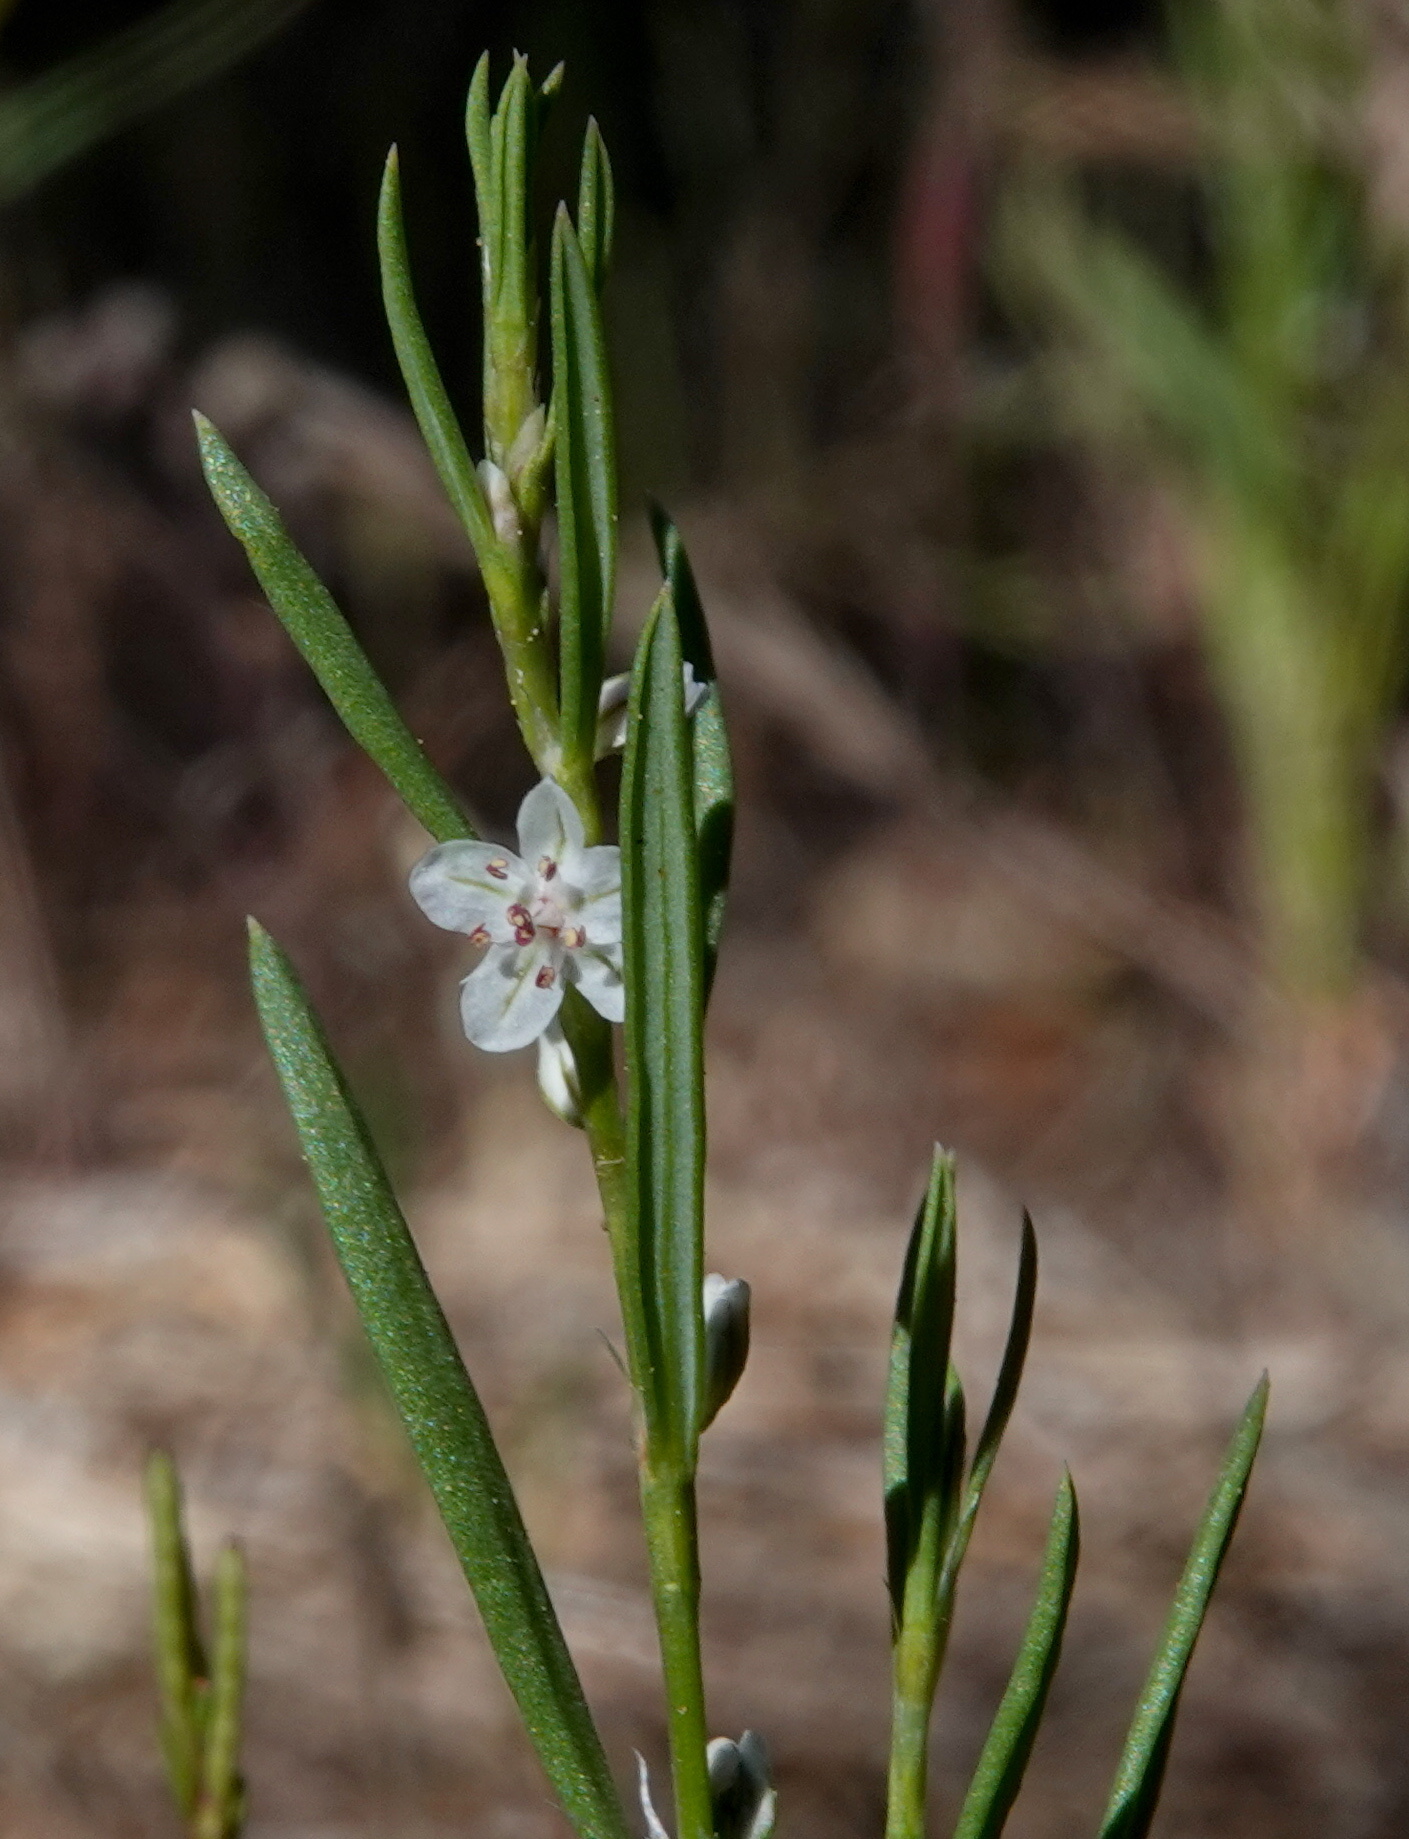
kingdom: Plantae
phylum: Tracheophyta
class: Magnoliopsida
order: Caryophyllales
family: Polygonaceae
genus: Polygonum
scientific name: Polygonum sawatchense
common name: Sawatch knotweed
